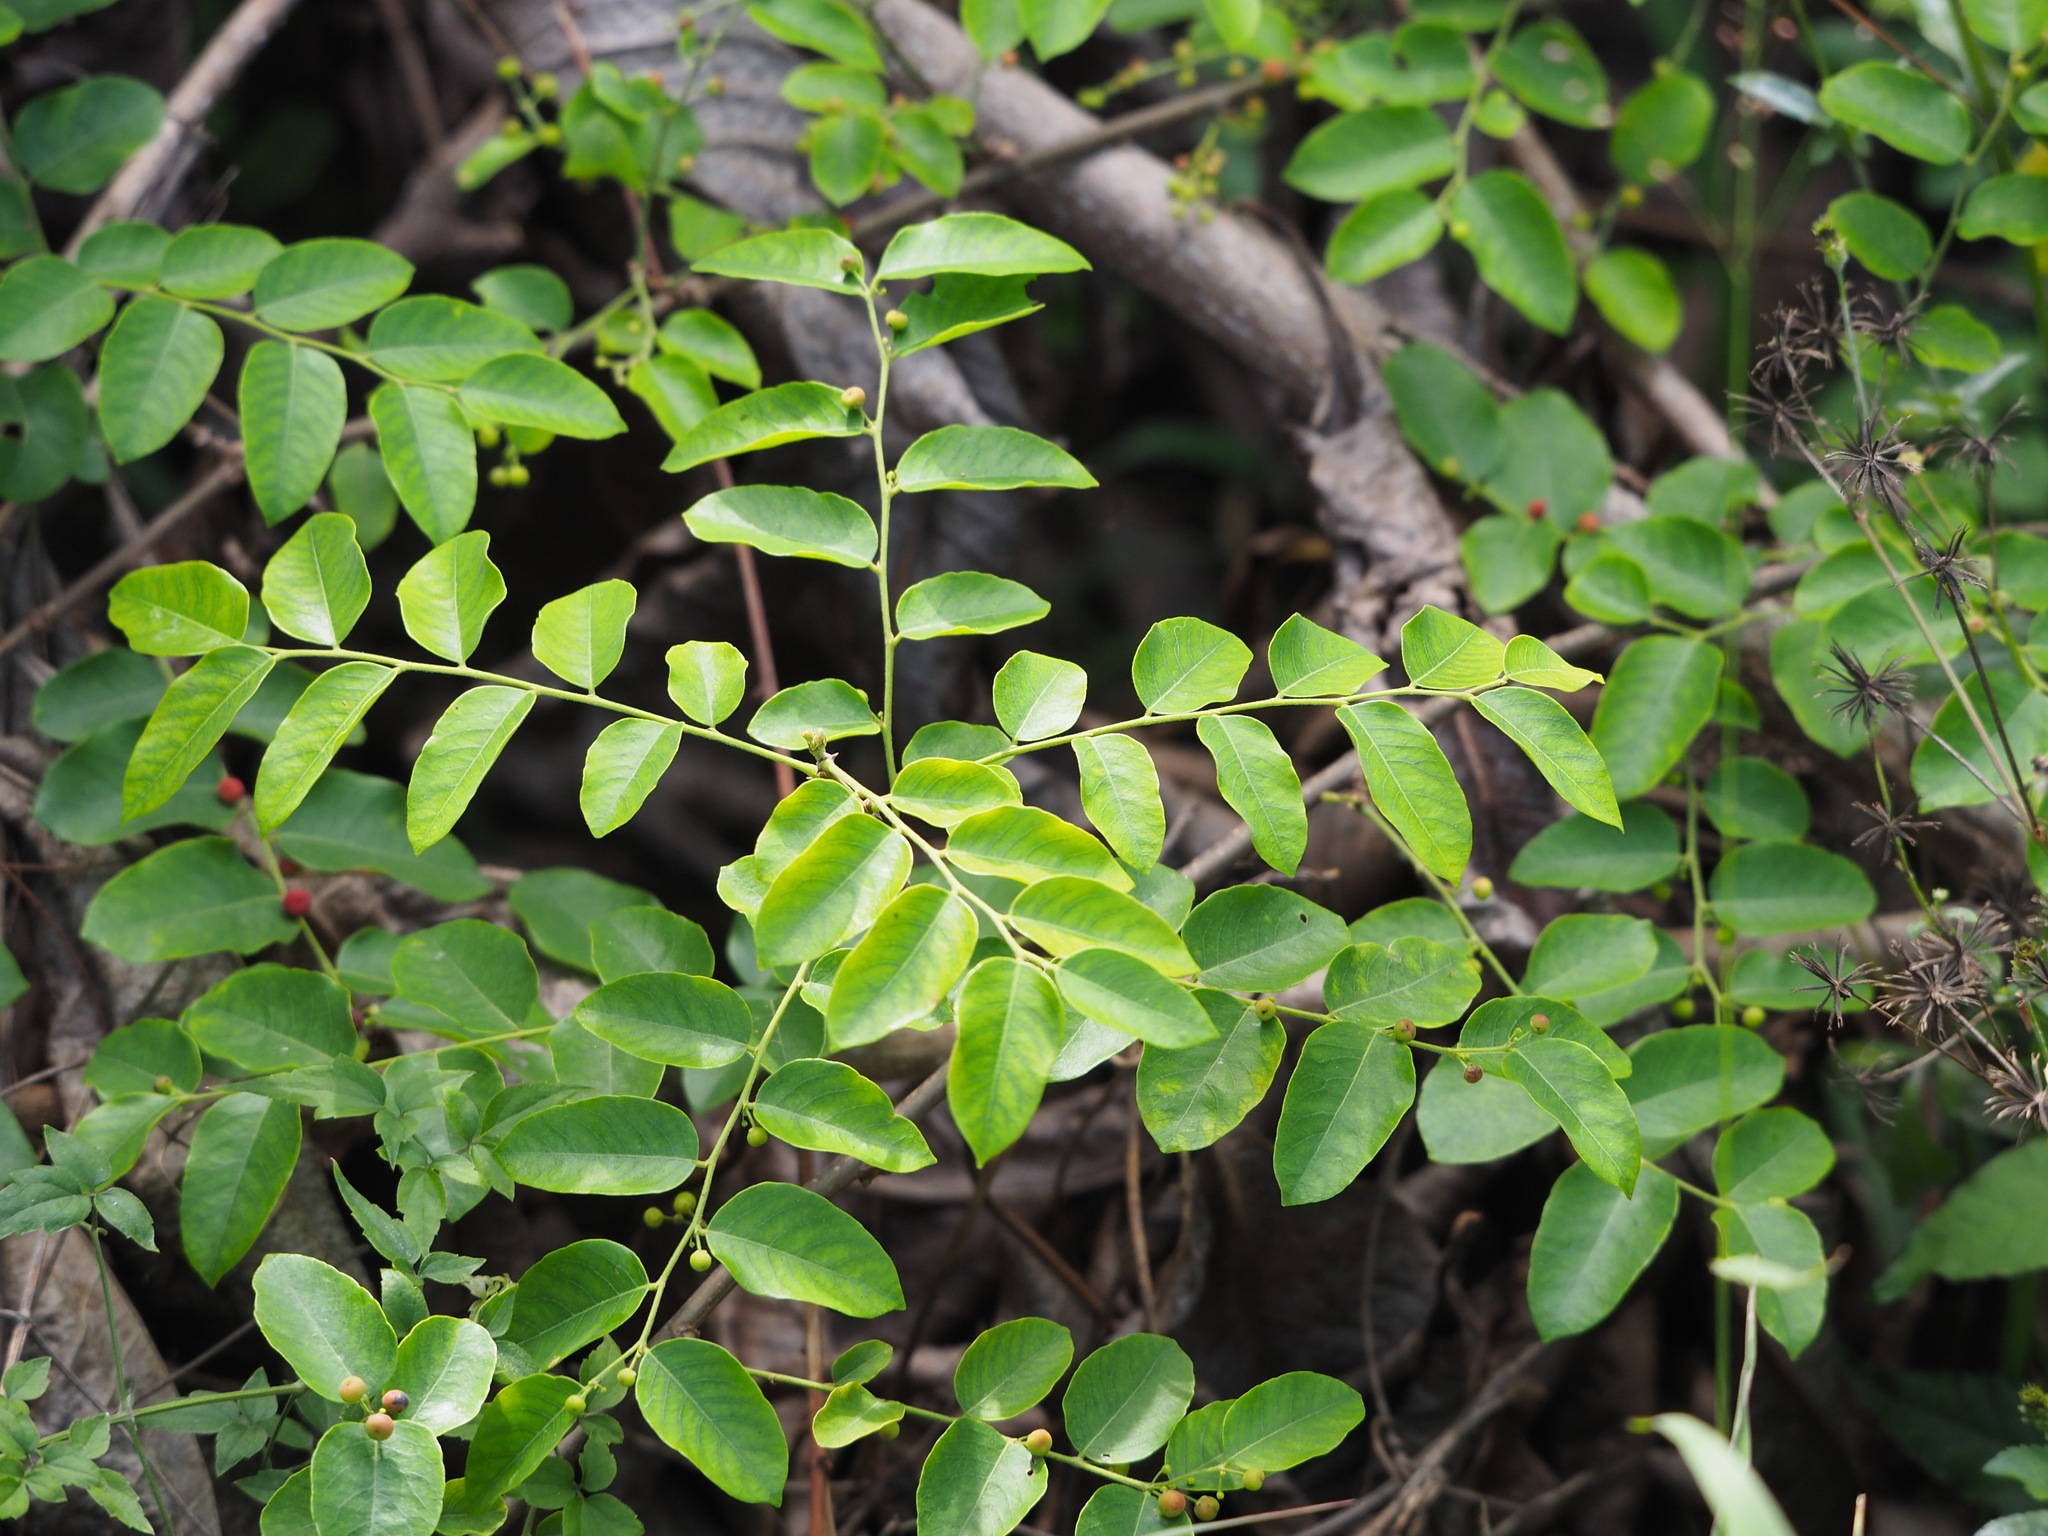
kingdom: Plantae
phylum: Tracheophyta
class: Magnoliopsida
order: Malpighiales
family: Phyllanthaceae
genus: Phyllanthus
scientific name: Phyllanthus reticulatus
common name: Potato bush
